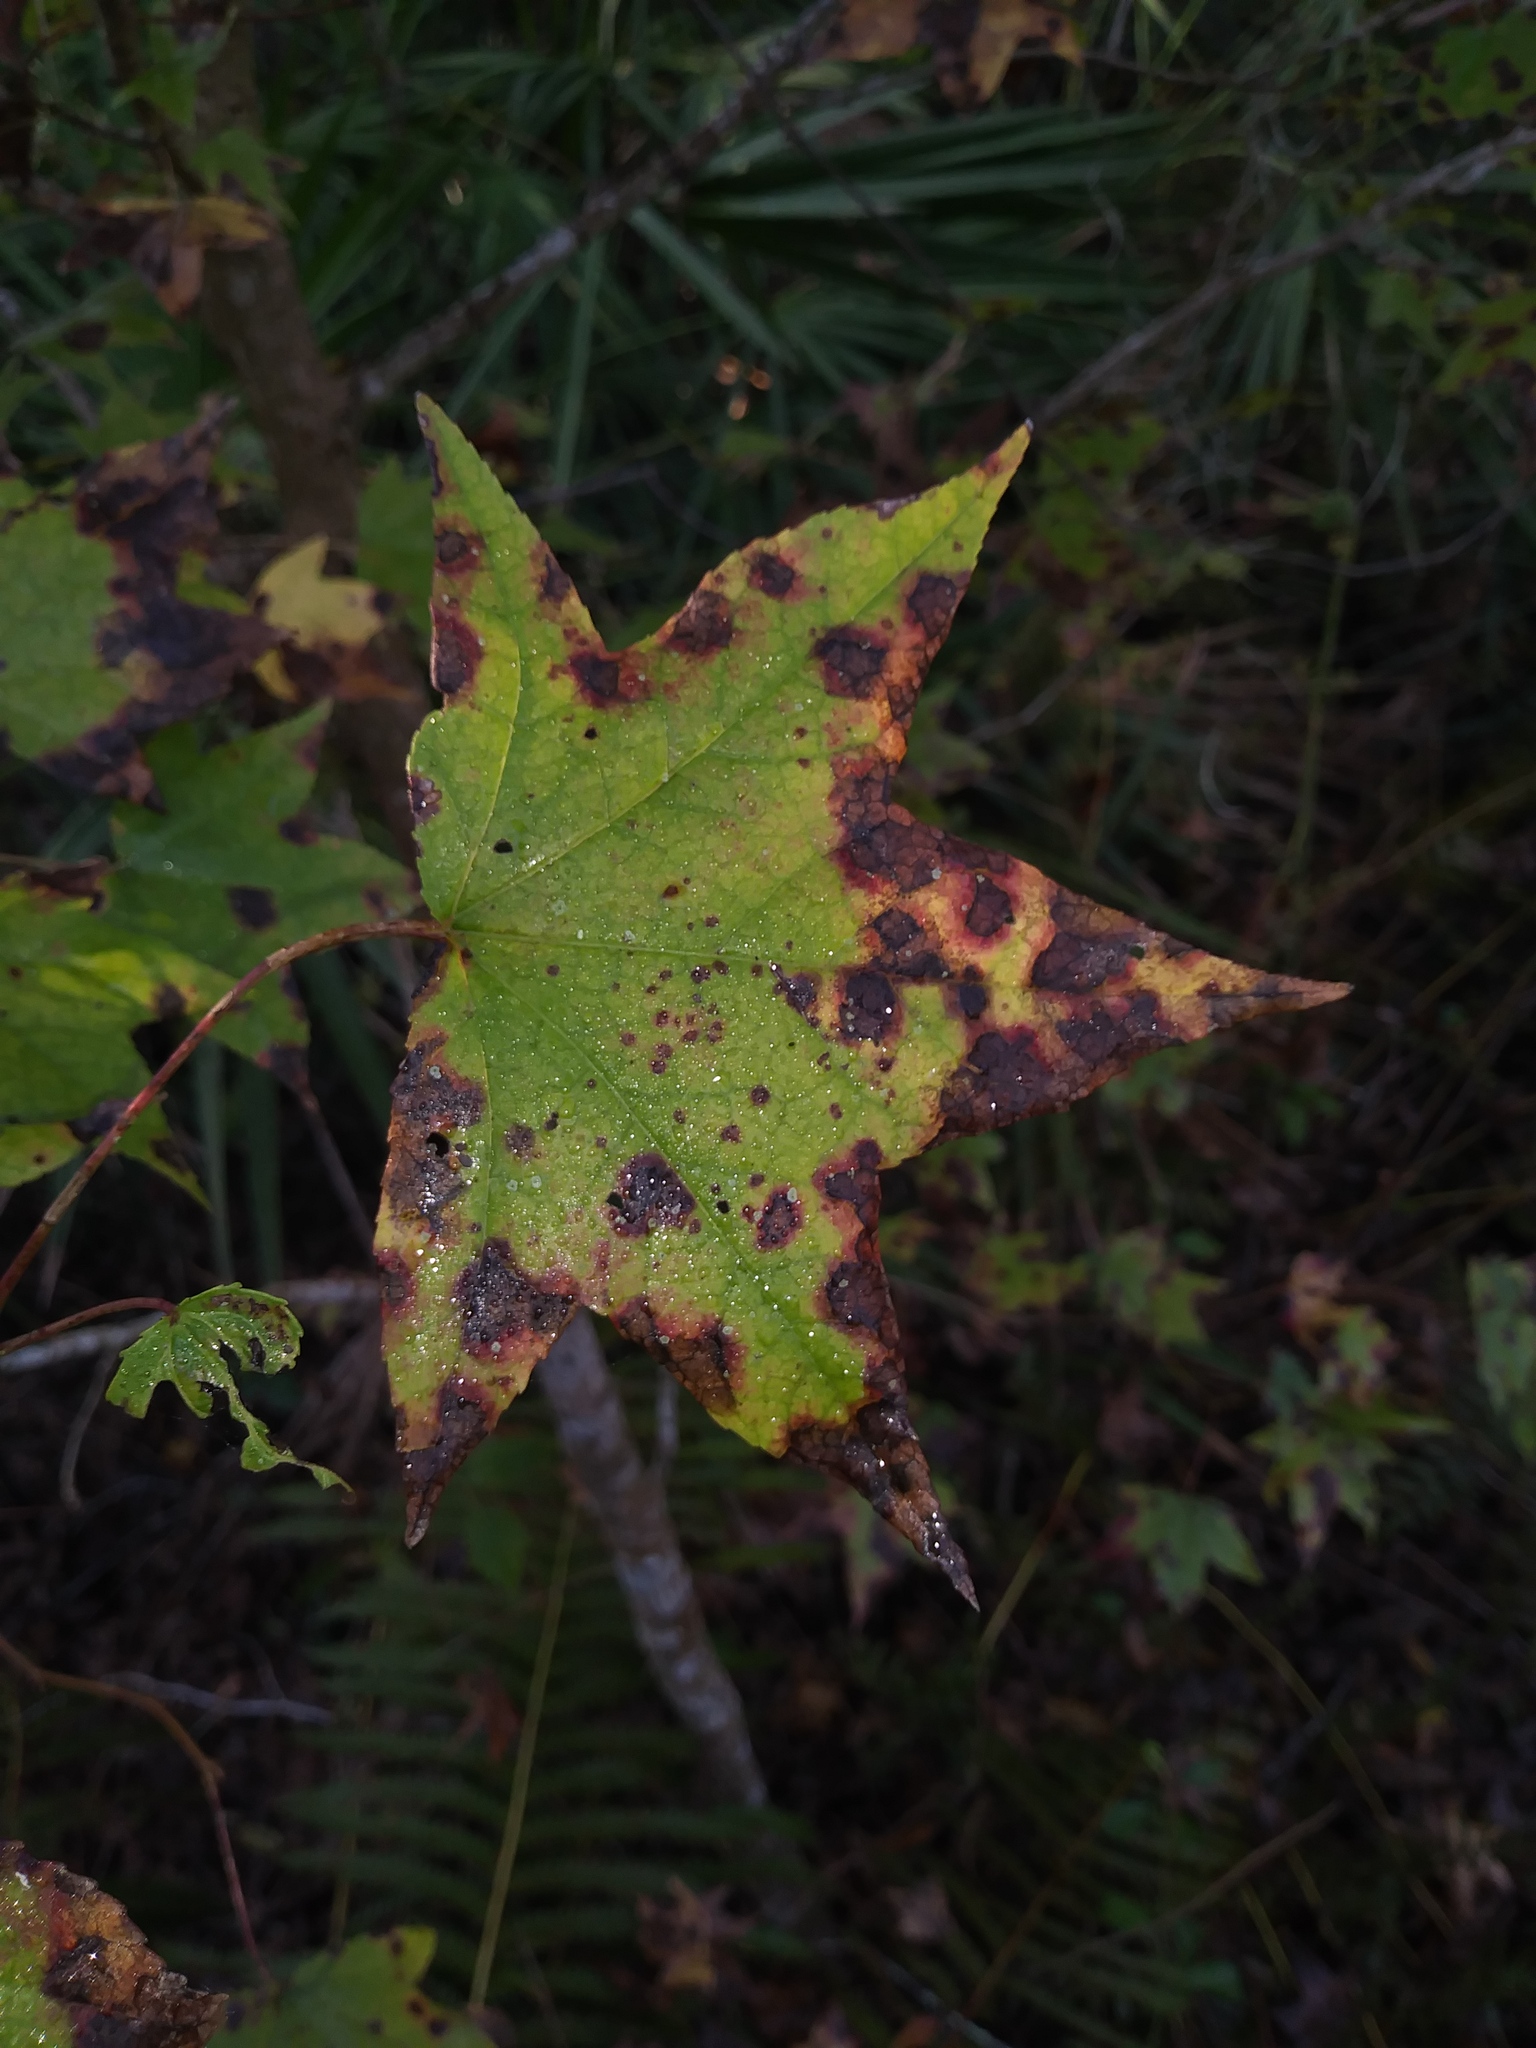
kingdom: Plantae
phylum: Tracheophyta
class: Magnoliopsida
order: Saxifragales
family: Altingiaceae
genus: Liquidambar
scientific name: Liquidambar styraciflua
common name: Sweet gum
